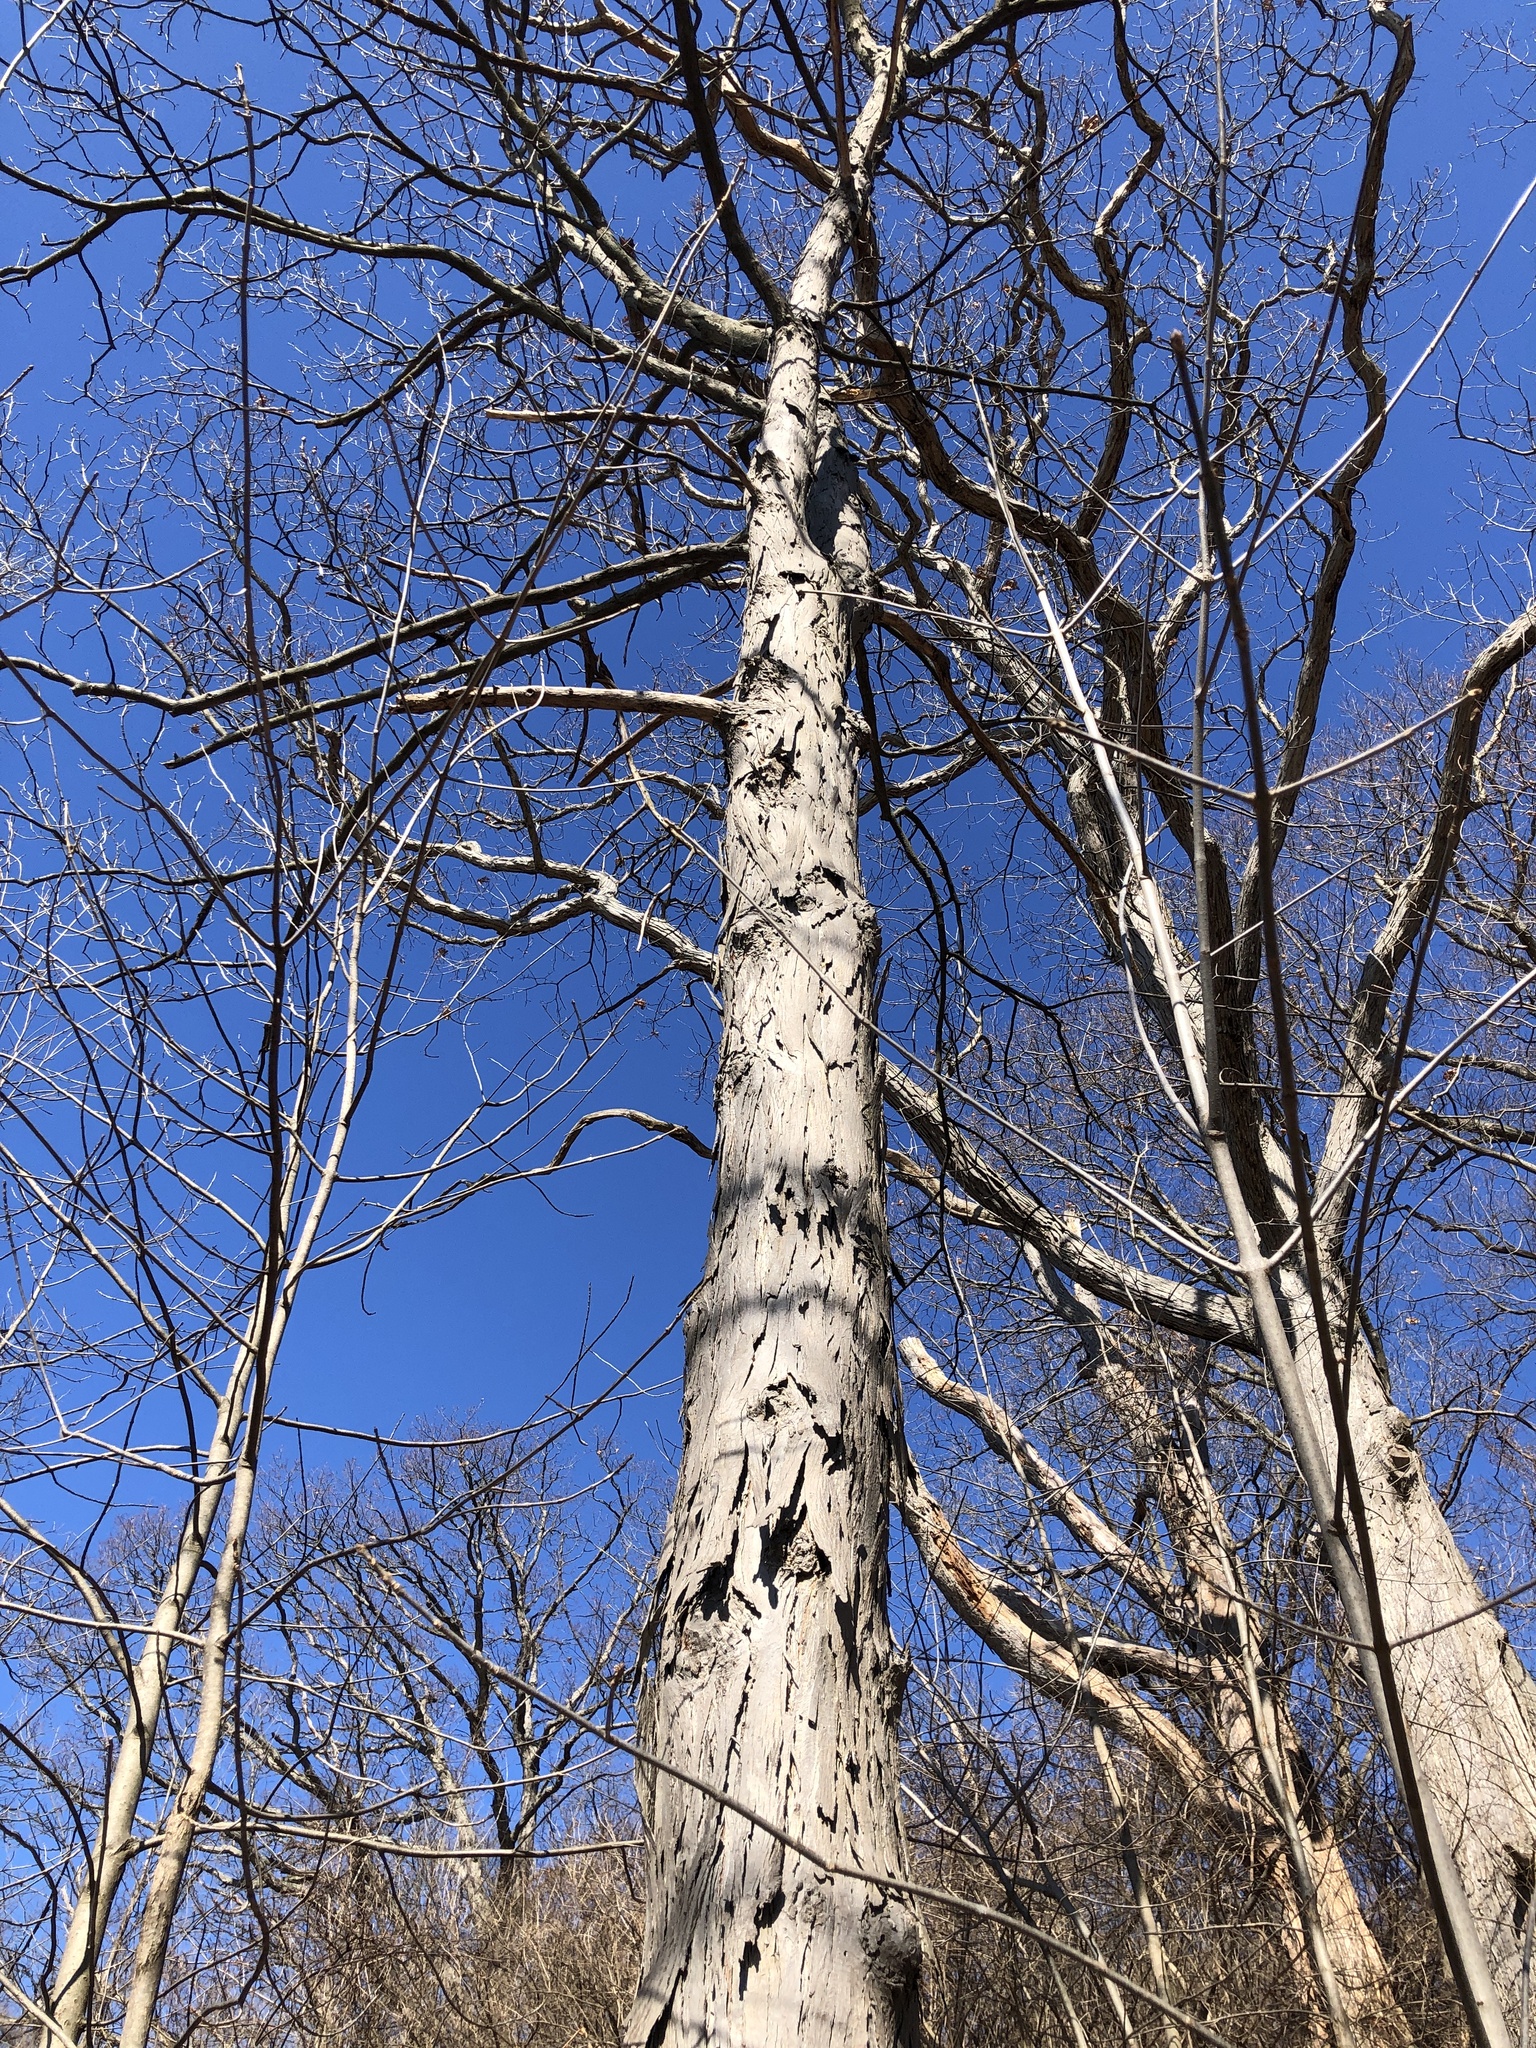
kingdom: Plantae
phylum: Tracheophyta
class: Magnoliopsida
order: Fagales
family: Juglandaceae
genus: Carya
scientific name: Carya ovata
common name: Shagbark hickory
